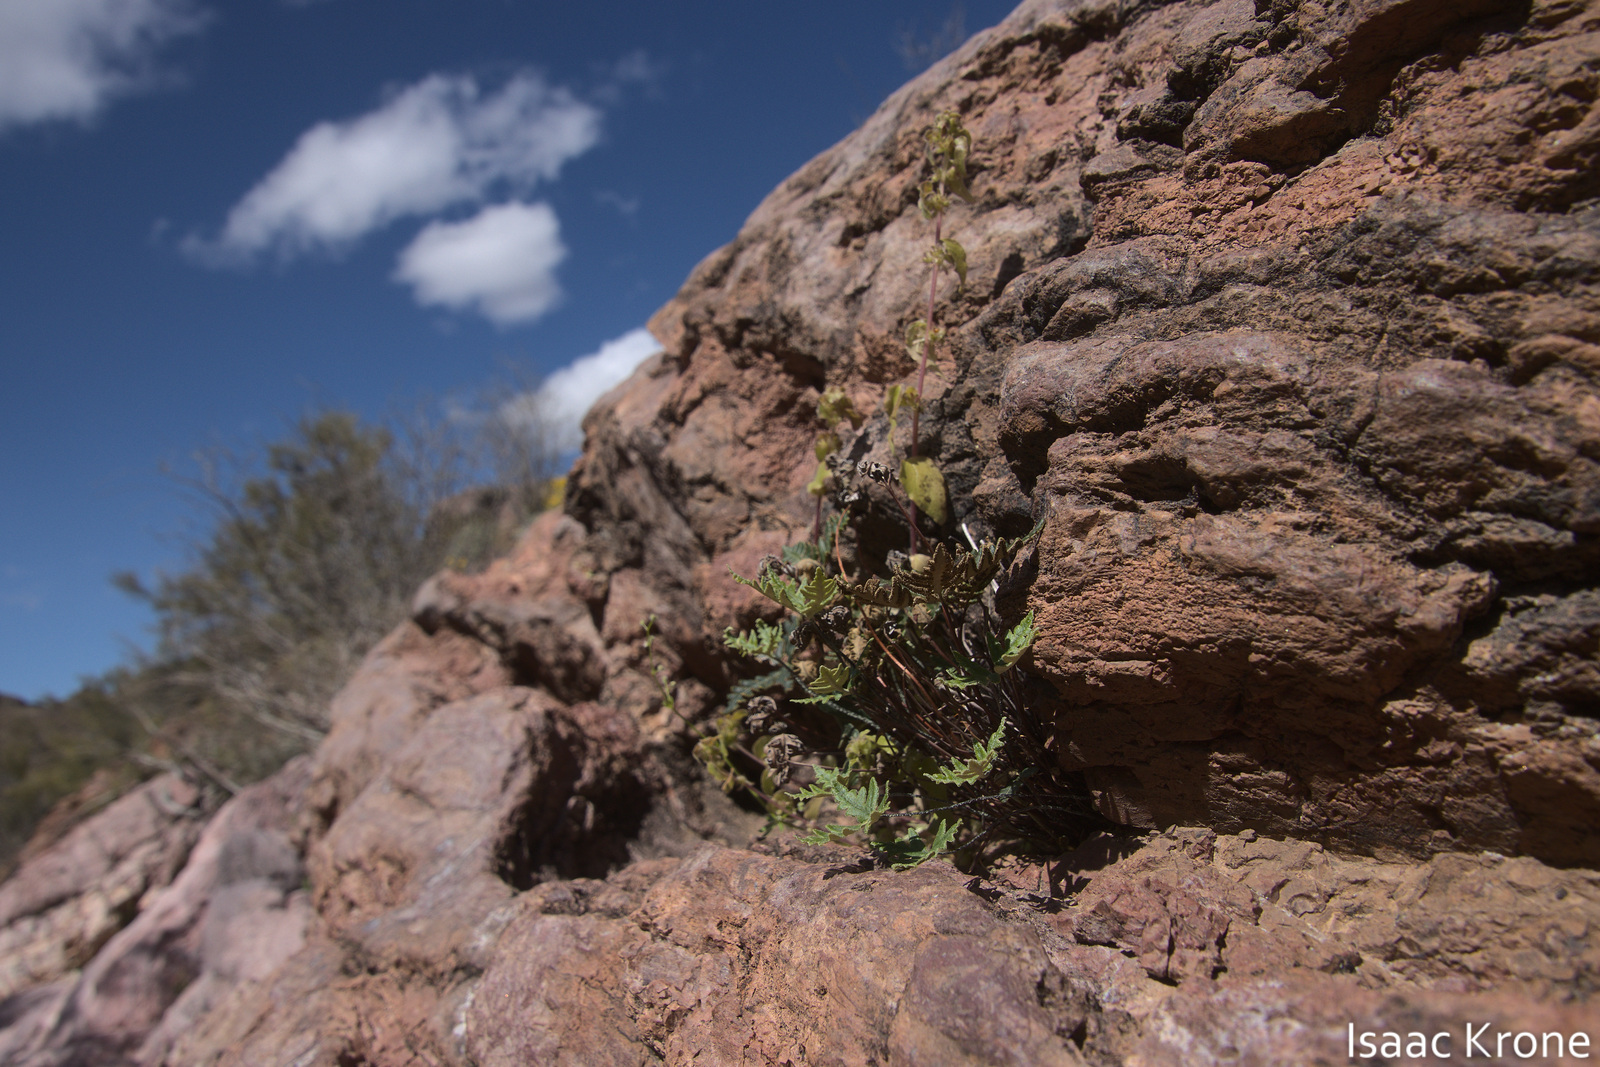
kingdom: Plantae
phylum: Tracheophyta
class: Polypodiopsida
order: Polypodiales
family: Pteridaceae
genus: Notholaena
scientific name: Notholaena standleyi
